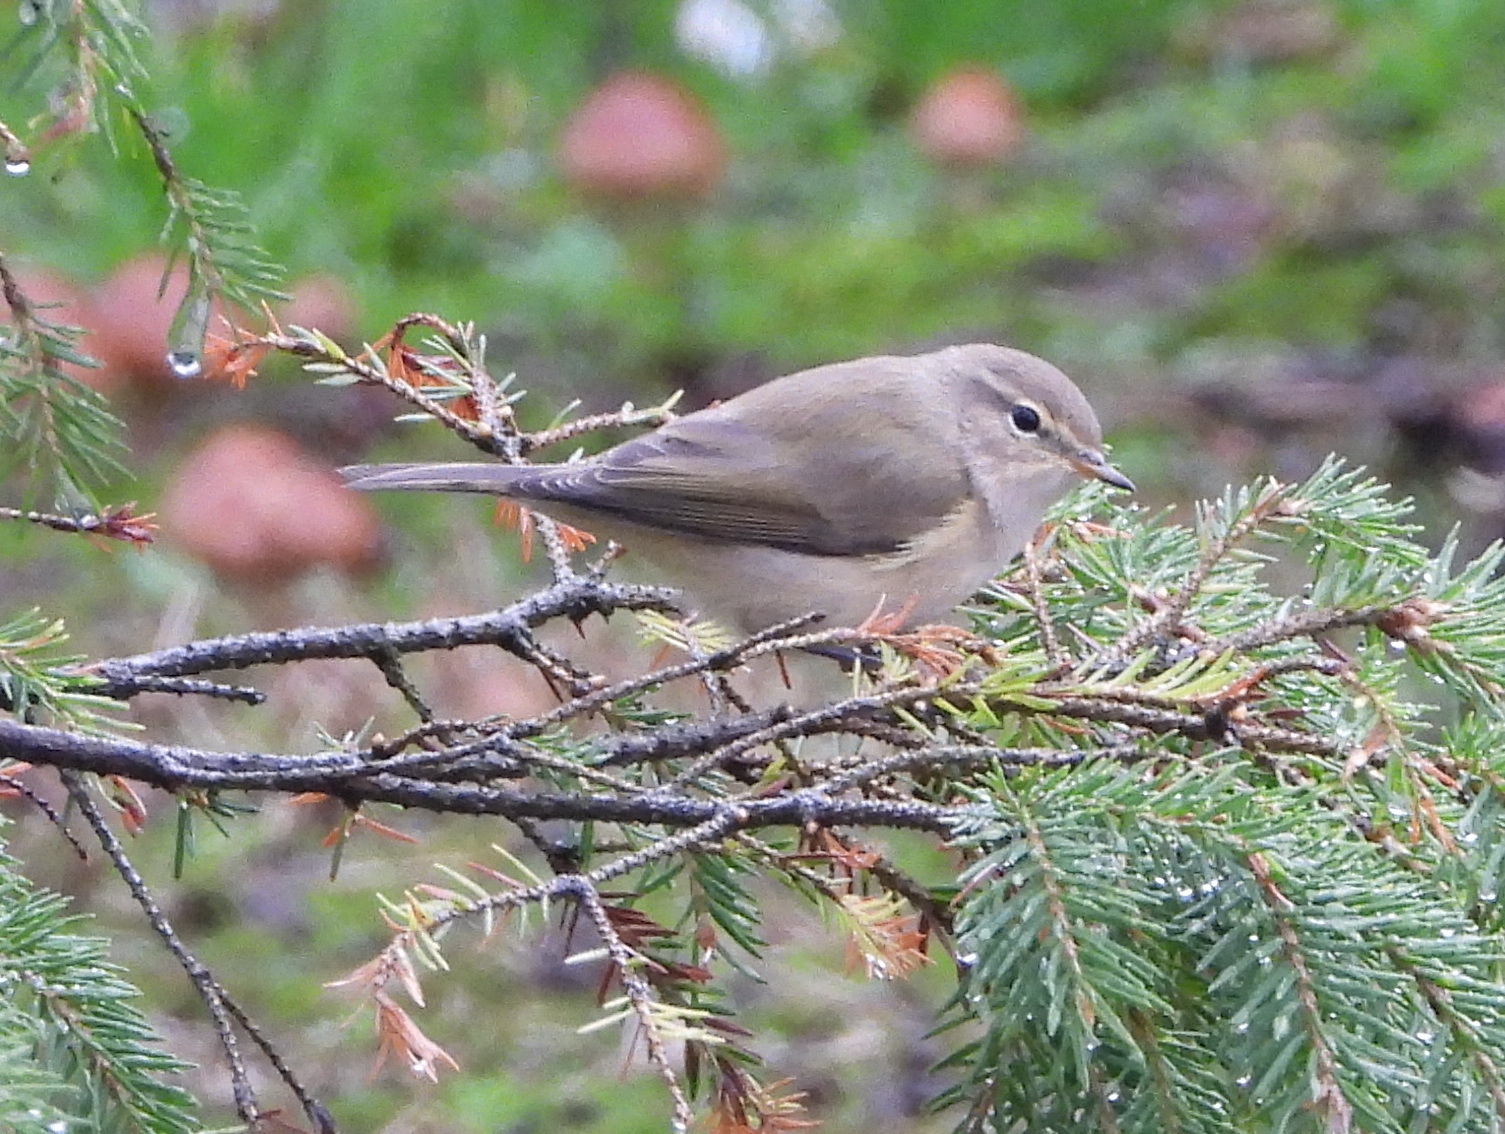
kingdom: Animalia
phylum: Chordata
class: Aves
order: Passeriformes
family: Phylloscopidae
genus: Phylloscopus
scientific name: Phylloscopus collybita
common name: Common chiffchaff
